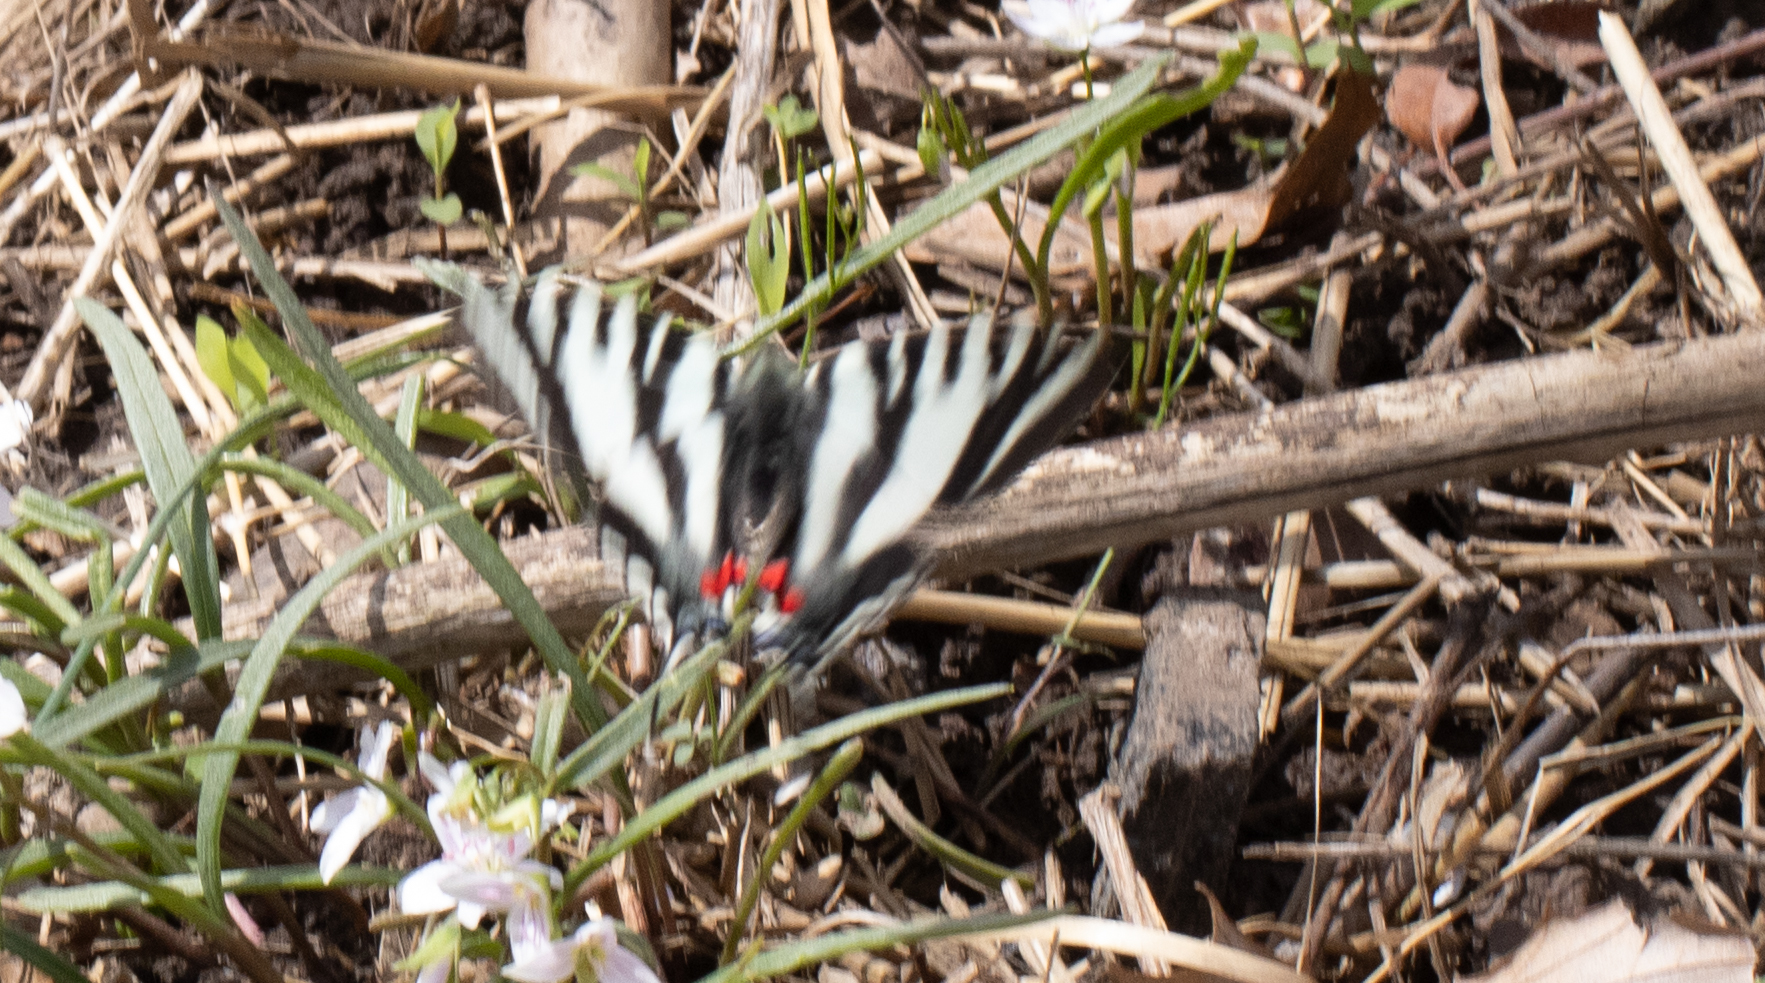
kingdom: Animalia
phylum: Arthropoda
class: Insecta
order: Lepidoptera
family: Papilionidae
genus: Protographium
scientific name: Protographium marcellus
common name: Zebra swallowtail
